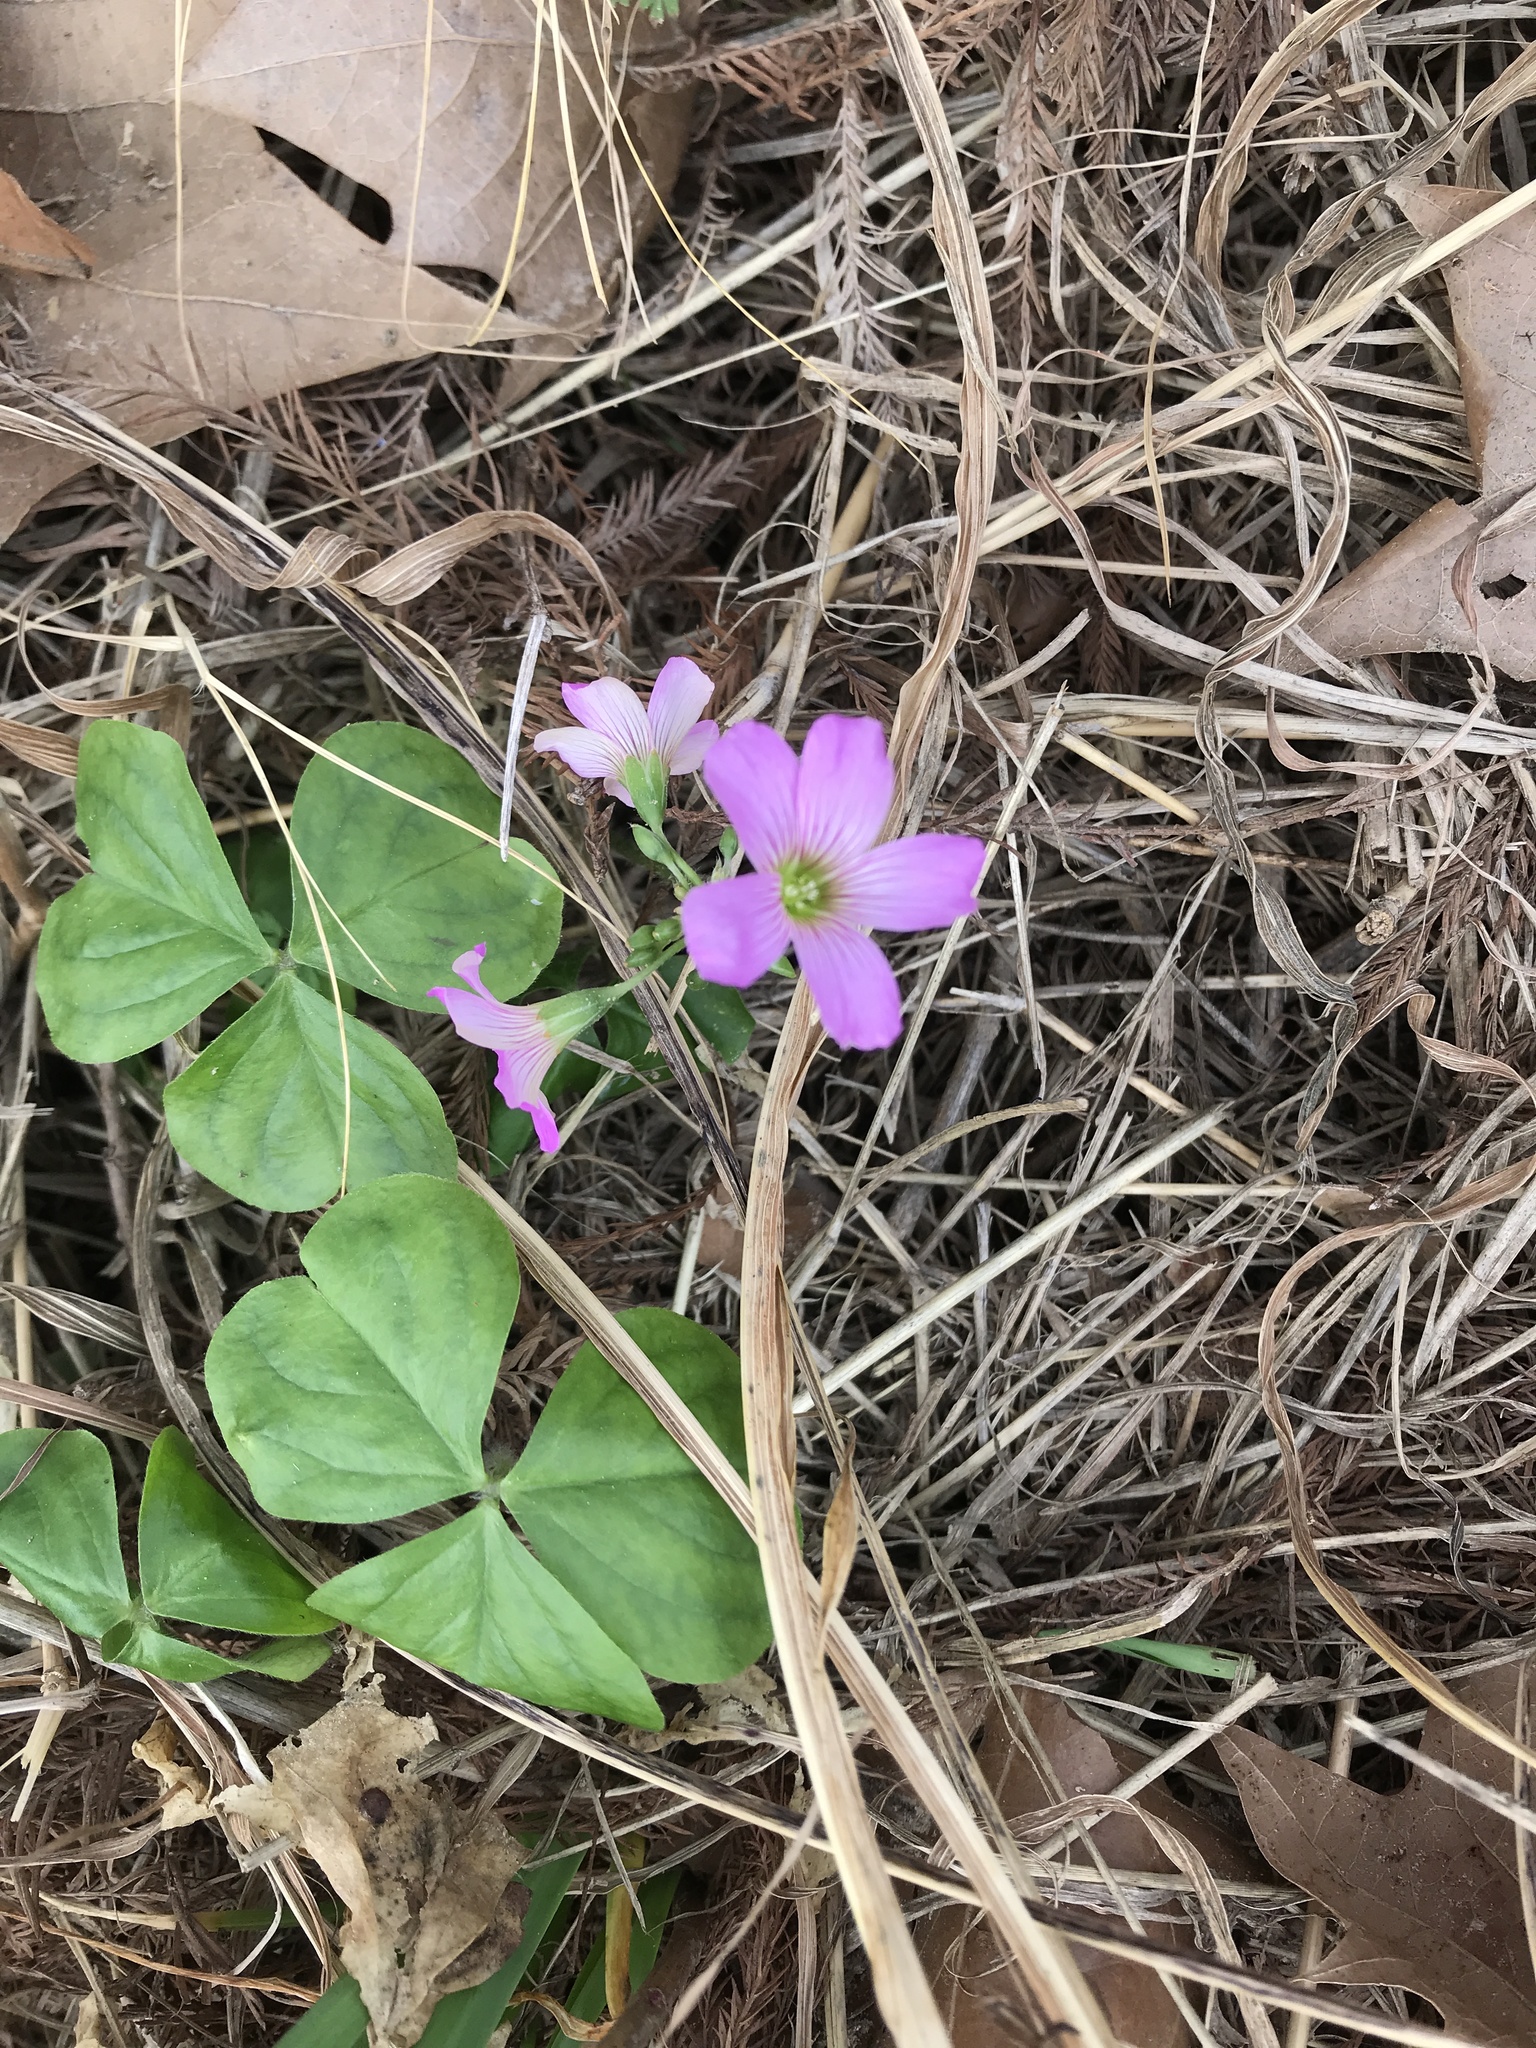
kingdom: Plantae
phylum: Tracheophyta
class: Magnoliopsida
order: Oxalidales
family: Oxalidaceae
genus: Oxalis
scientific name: Oxalis debilis
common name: Large-flowered pink-sorrel
